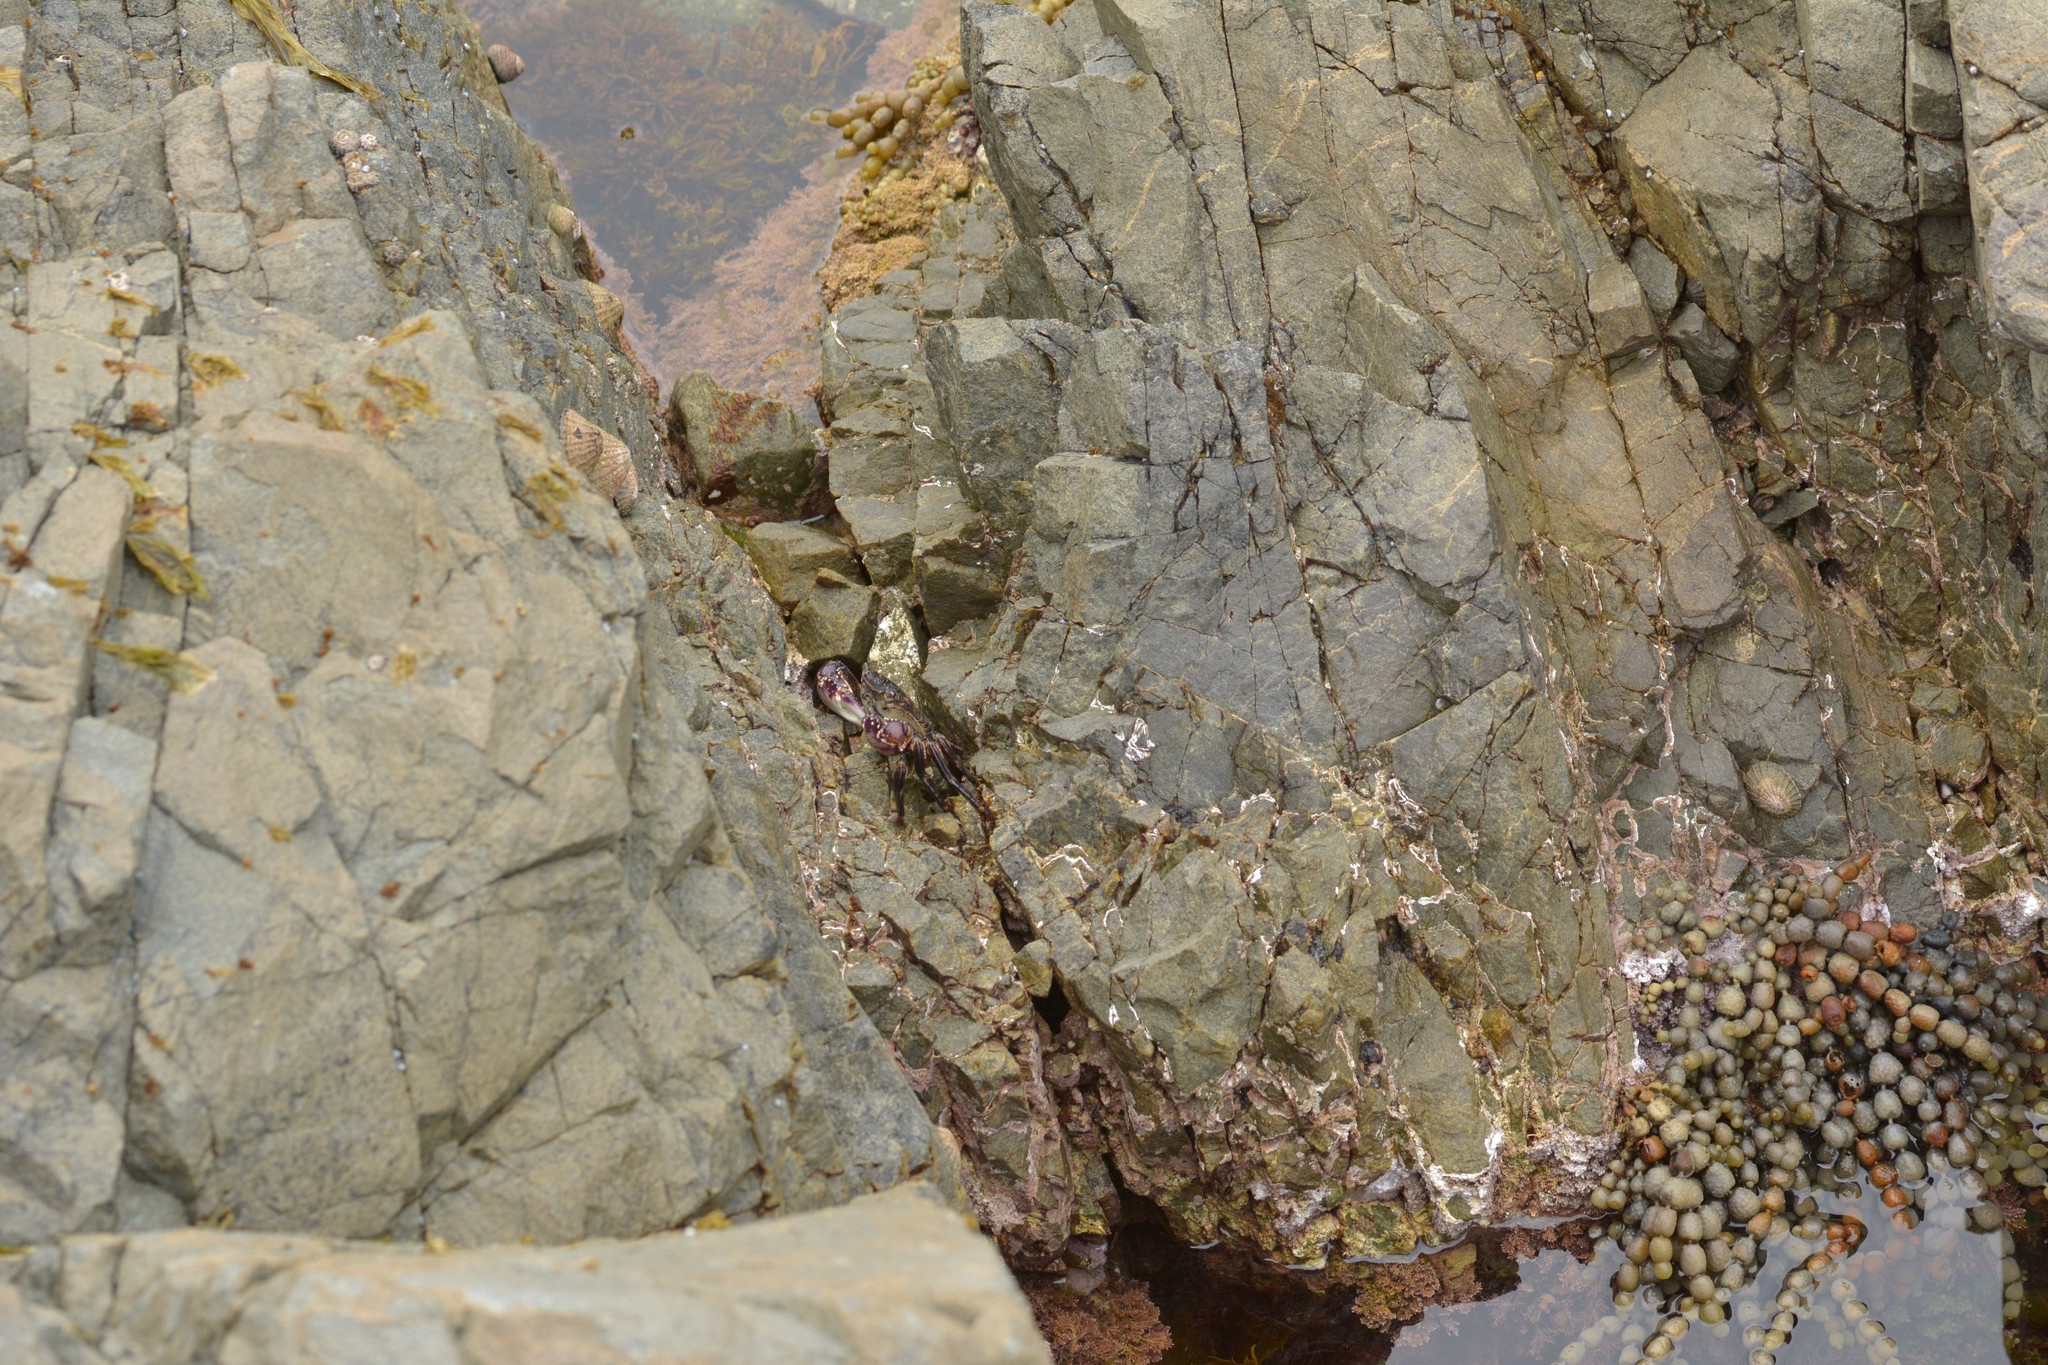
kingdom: Animalia
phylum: Arthropoda
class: Malacostraca
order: Decapoda
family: Grapsidae
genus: Leptograpsus
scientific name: Leptograpsus variegatus
